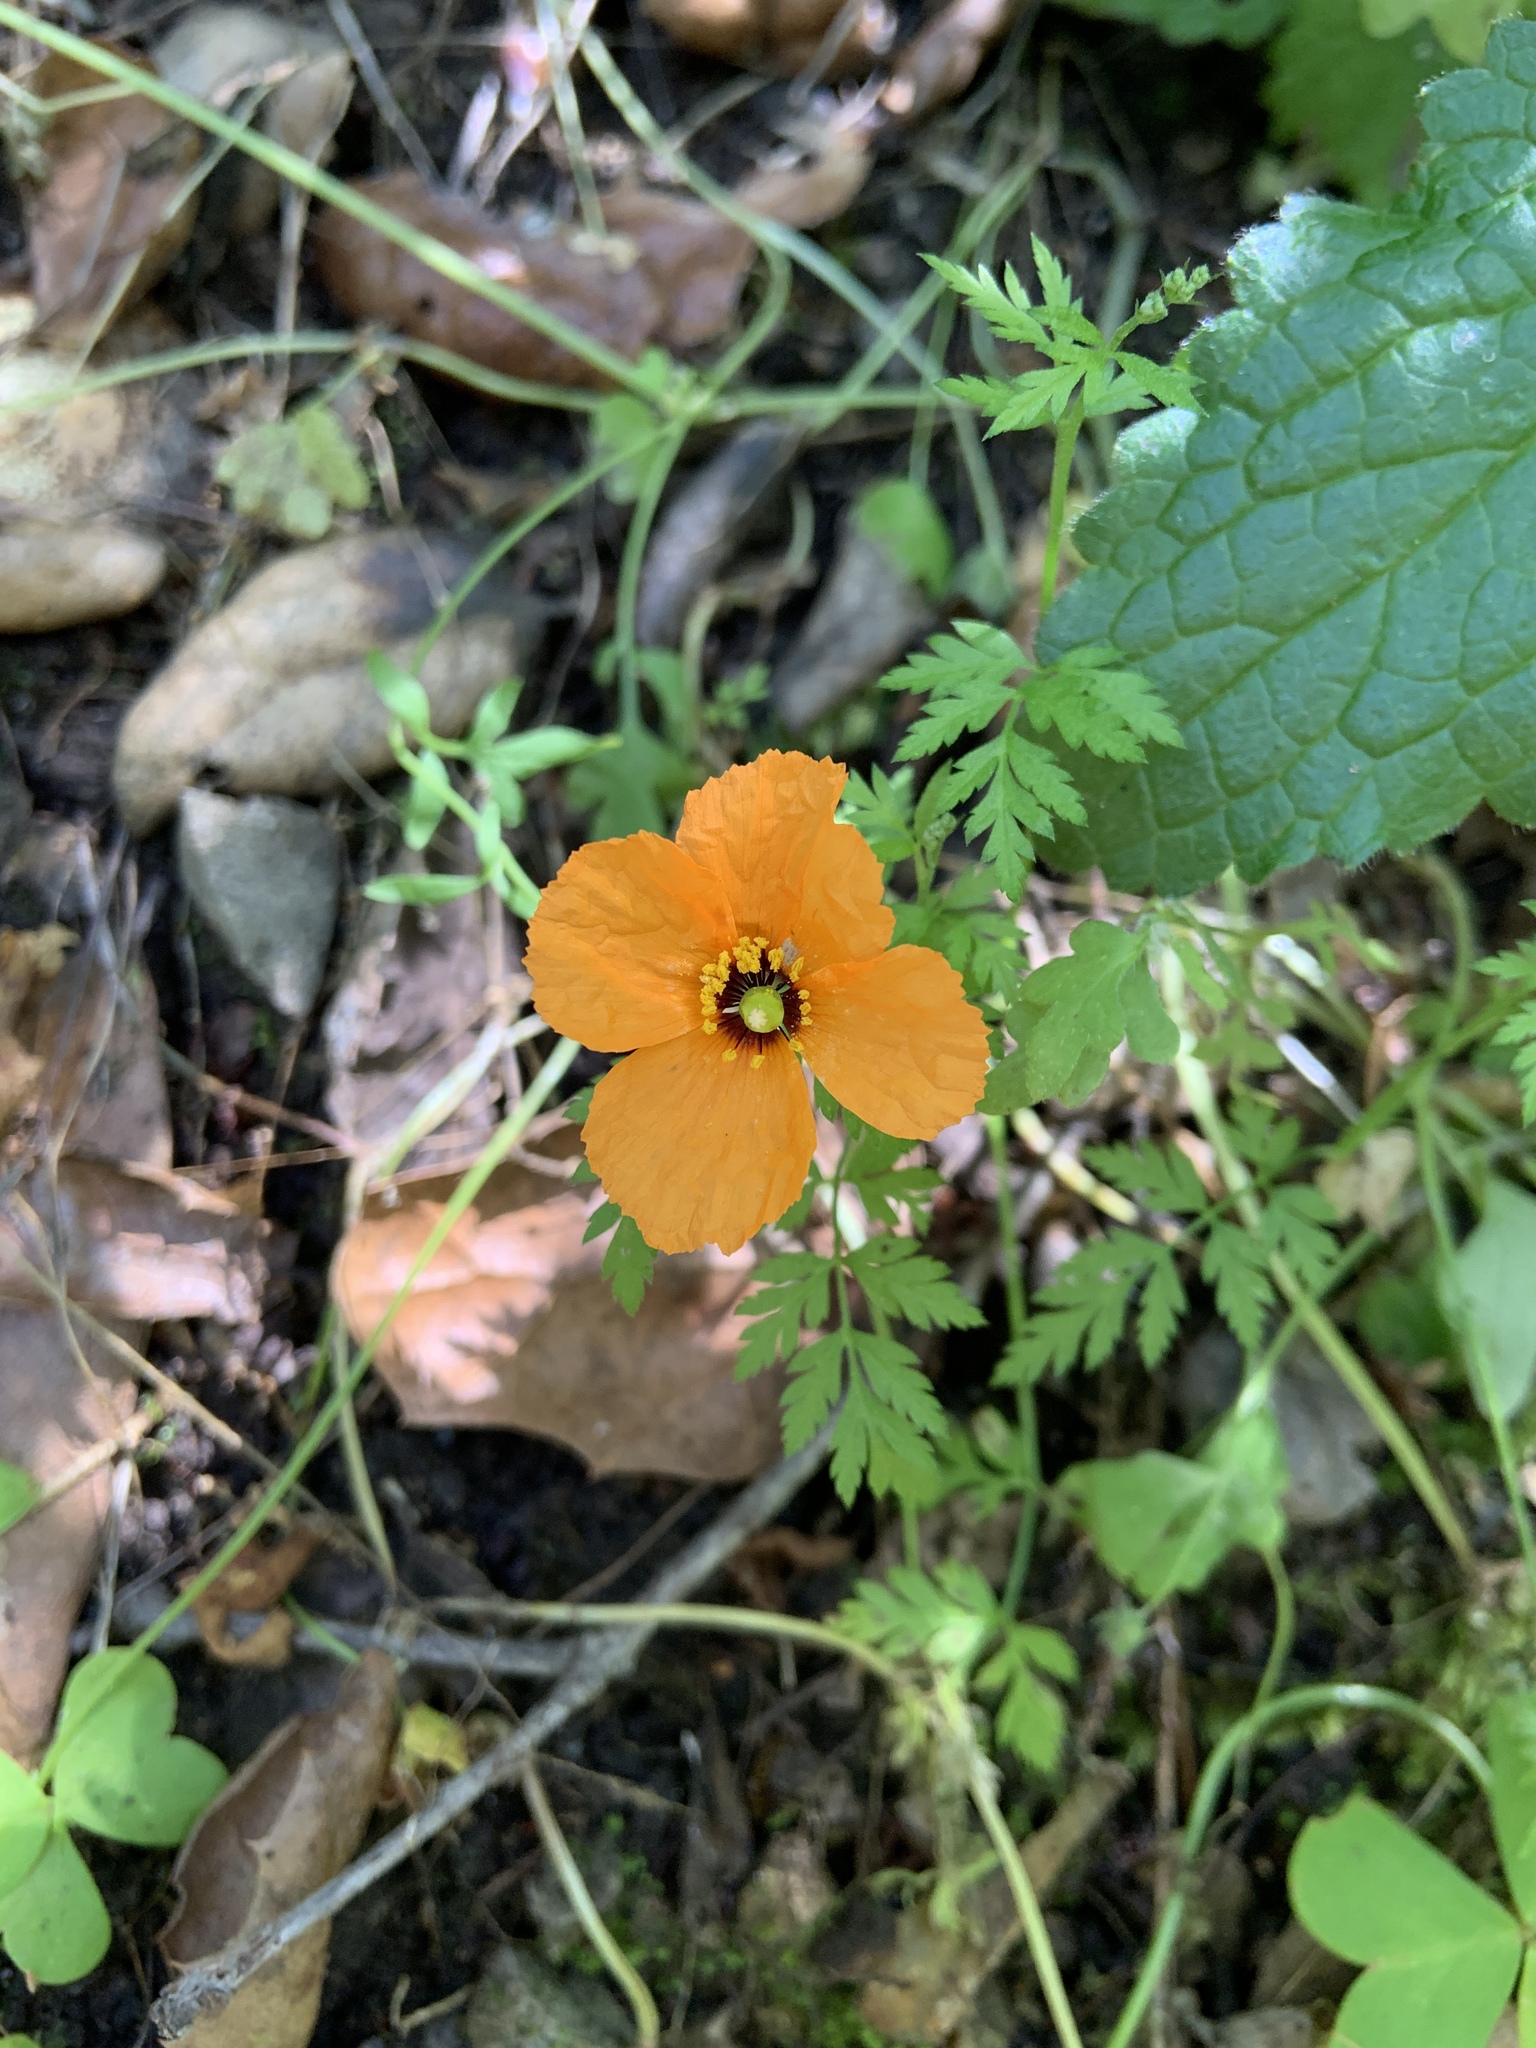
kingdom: Plantae
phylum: Tracheophyta
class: Magnoliopsida
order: Ranunculales
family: Papaveraceae
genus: Stylomecon
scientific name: Stylomecon heterophylla
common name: Flaming-poppy
